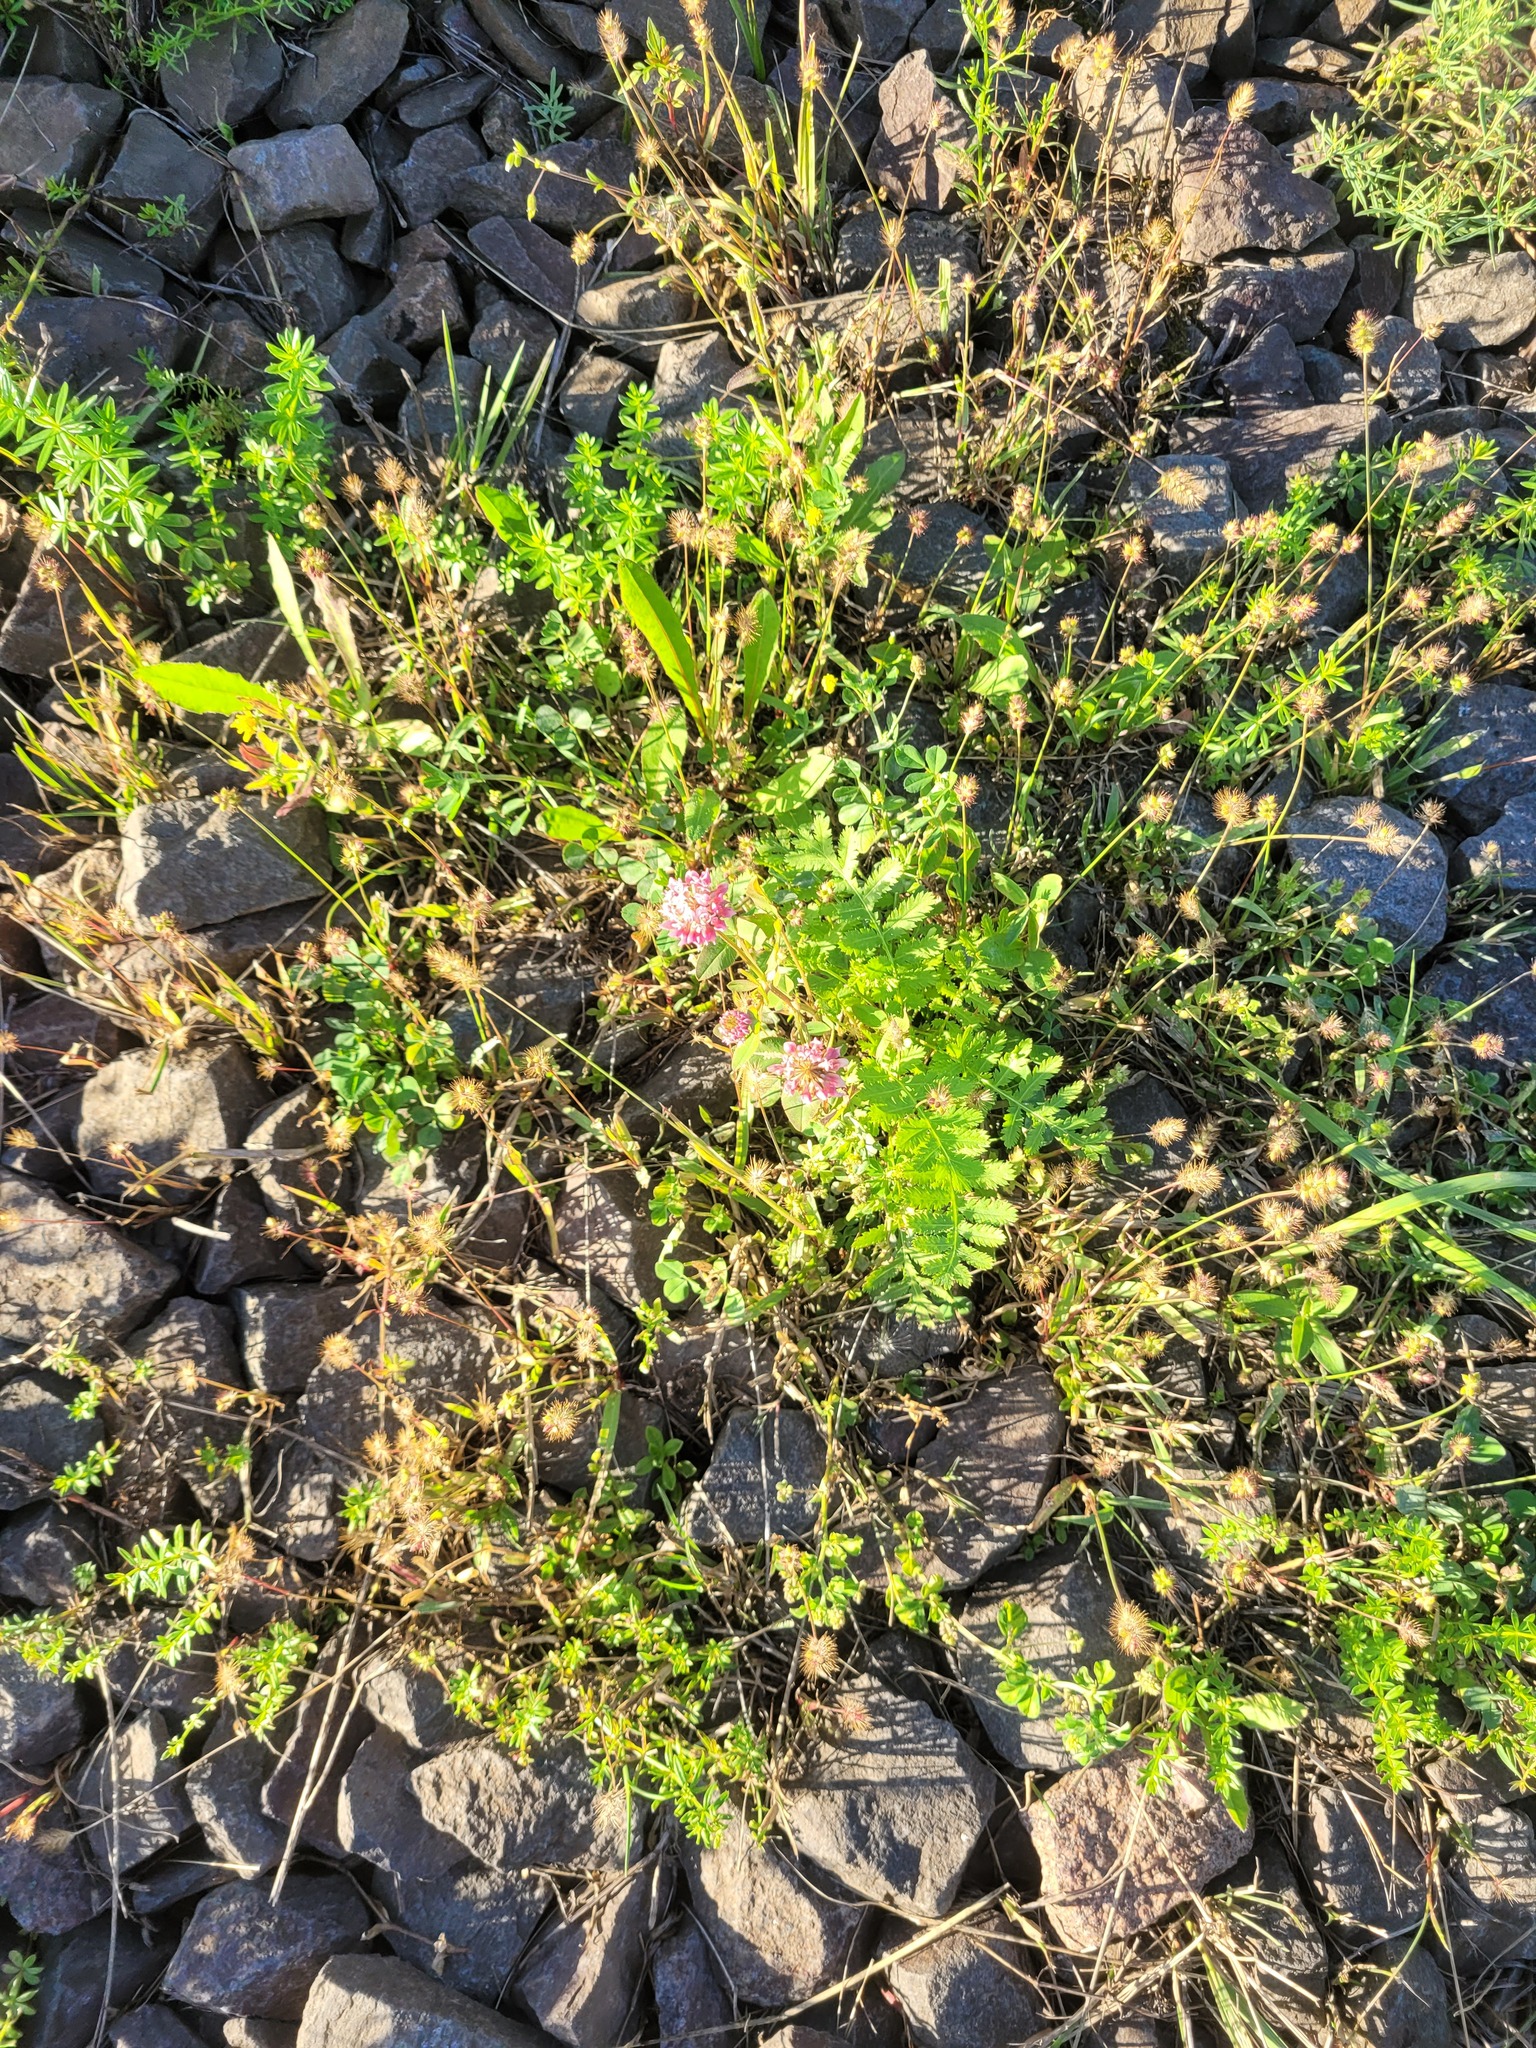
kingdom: Plantae
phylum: Tracheophyta
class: Magnoliopsida
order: Fabales
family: Fabaceae
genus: Trifolium
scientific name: Trifolium hybridum
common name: Alsike clover
